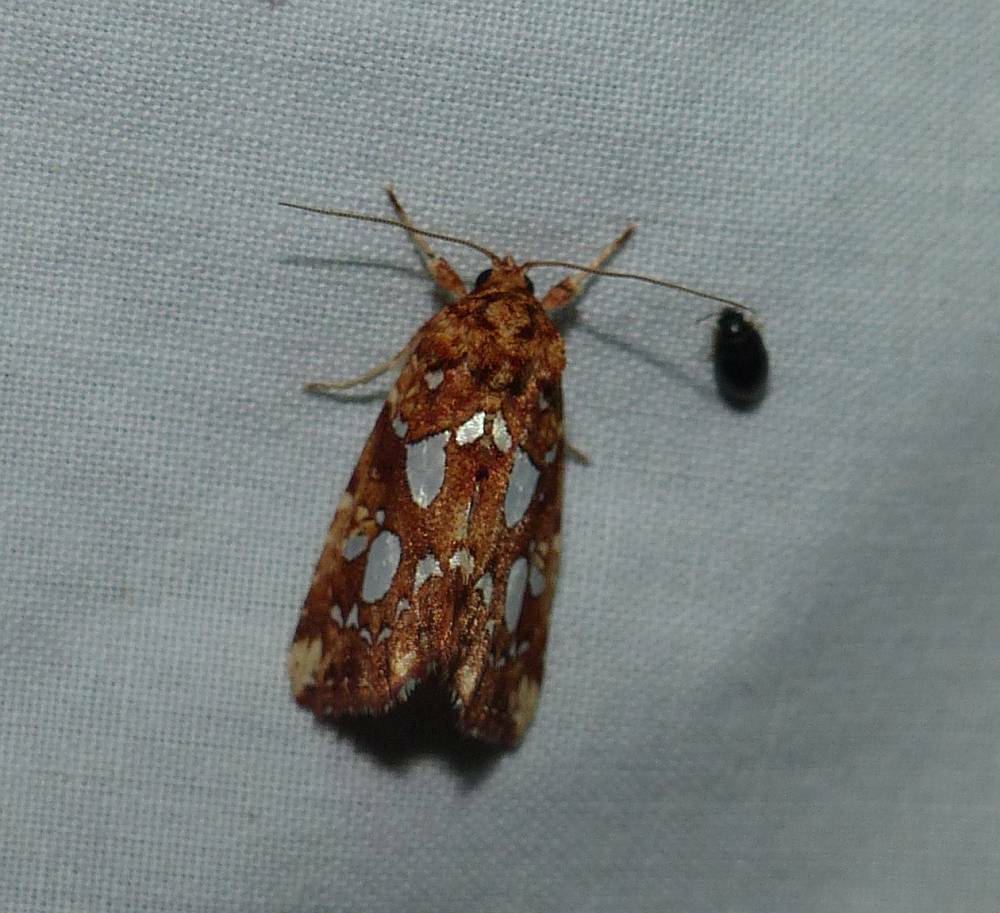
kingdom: Animalia
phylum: Arthropoda
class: Insecta
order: Lepidoptera
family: Noctuidae
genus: Callopistria
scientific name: Callopistria cordata
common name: Silver-spotted fern moth
